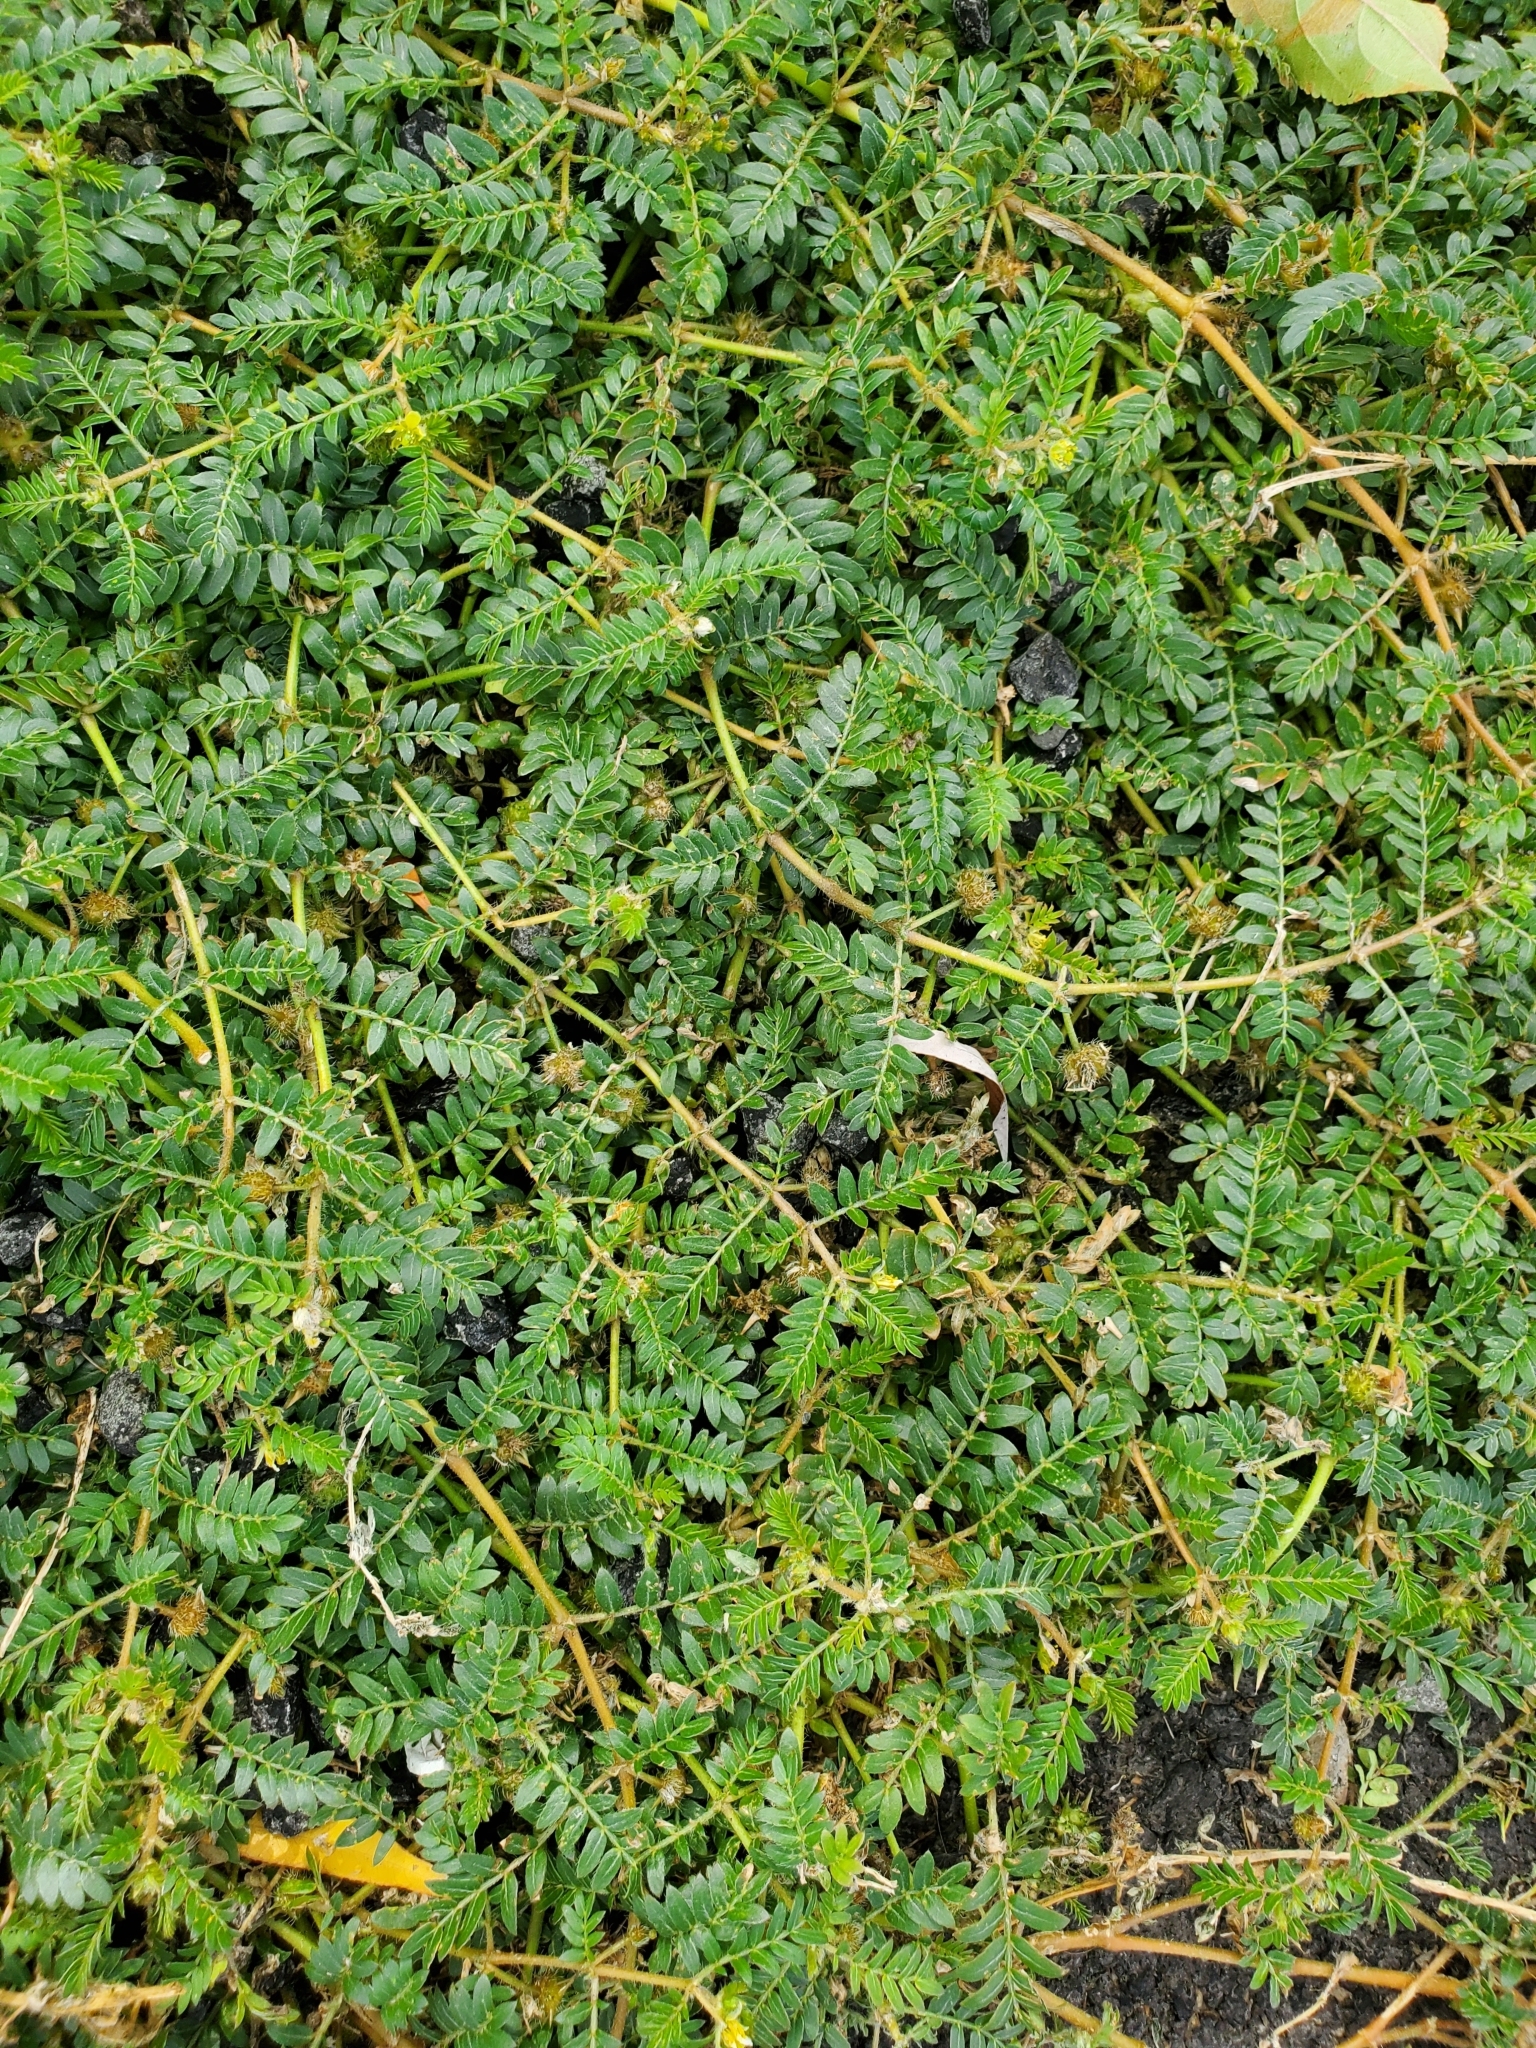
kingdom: Plantae
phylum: Tracheophyta
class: Magnoliopsida
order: Zygophyllales
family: Zygophyllaceae
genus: Tribulus
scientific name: Tribulus terrestris
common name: Puncturevine
